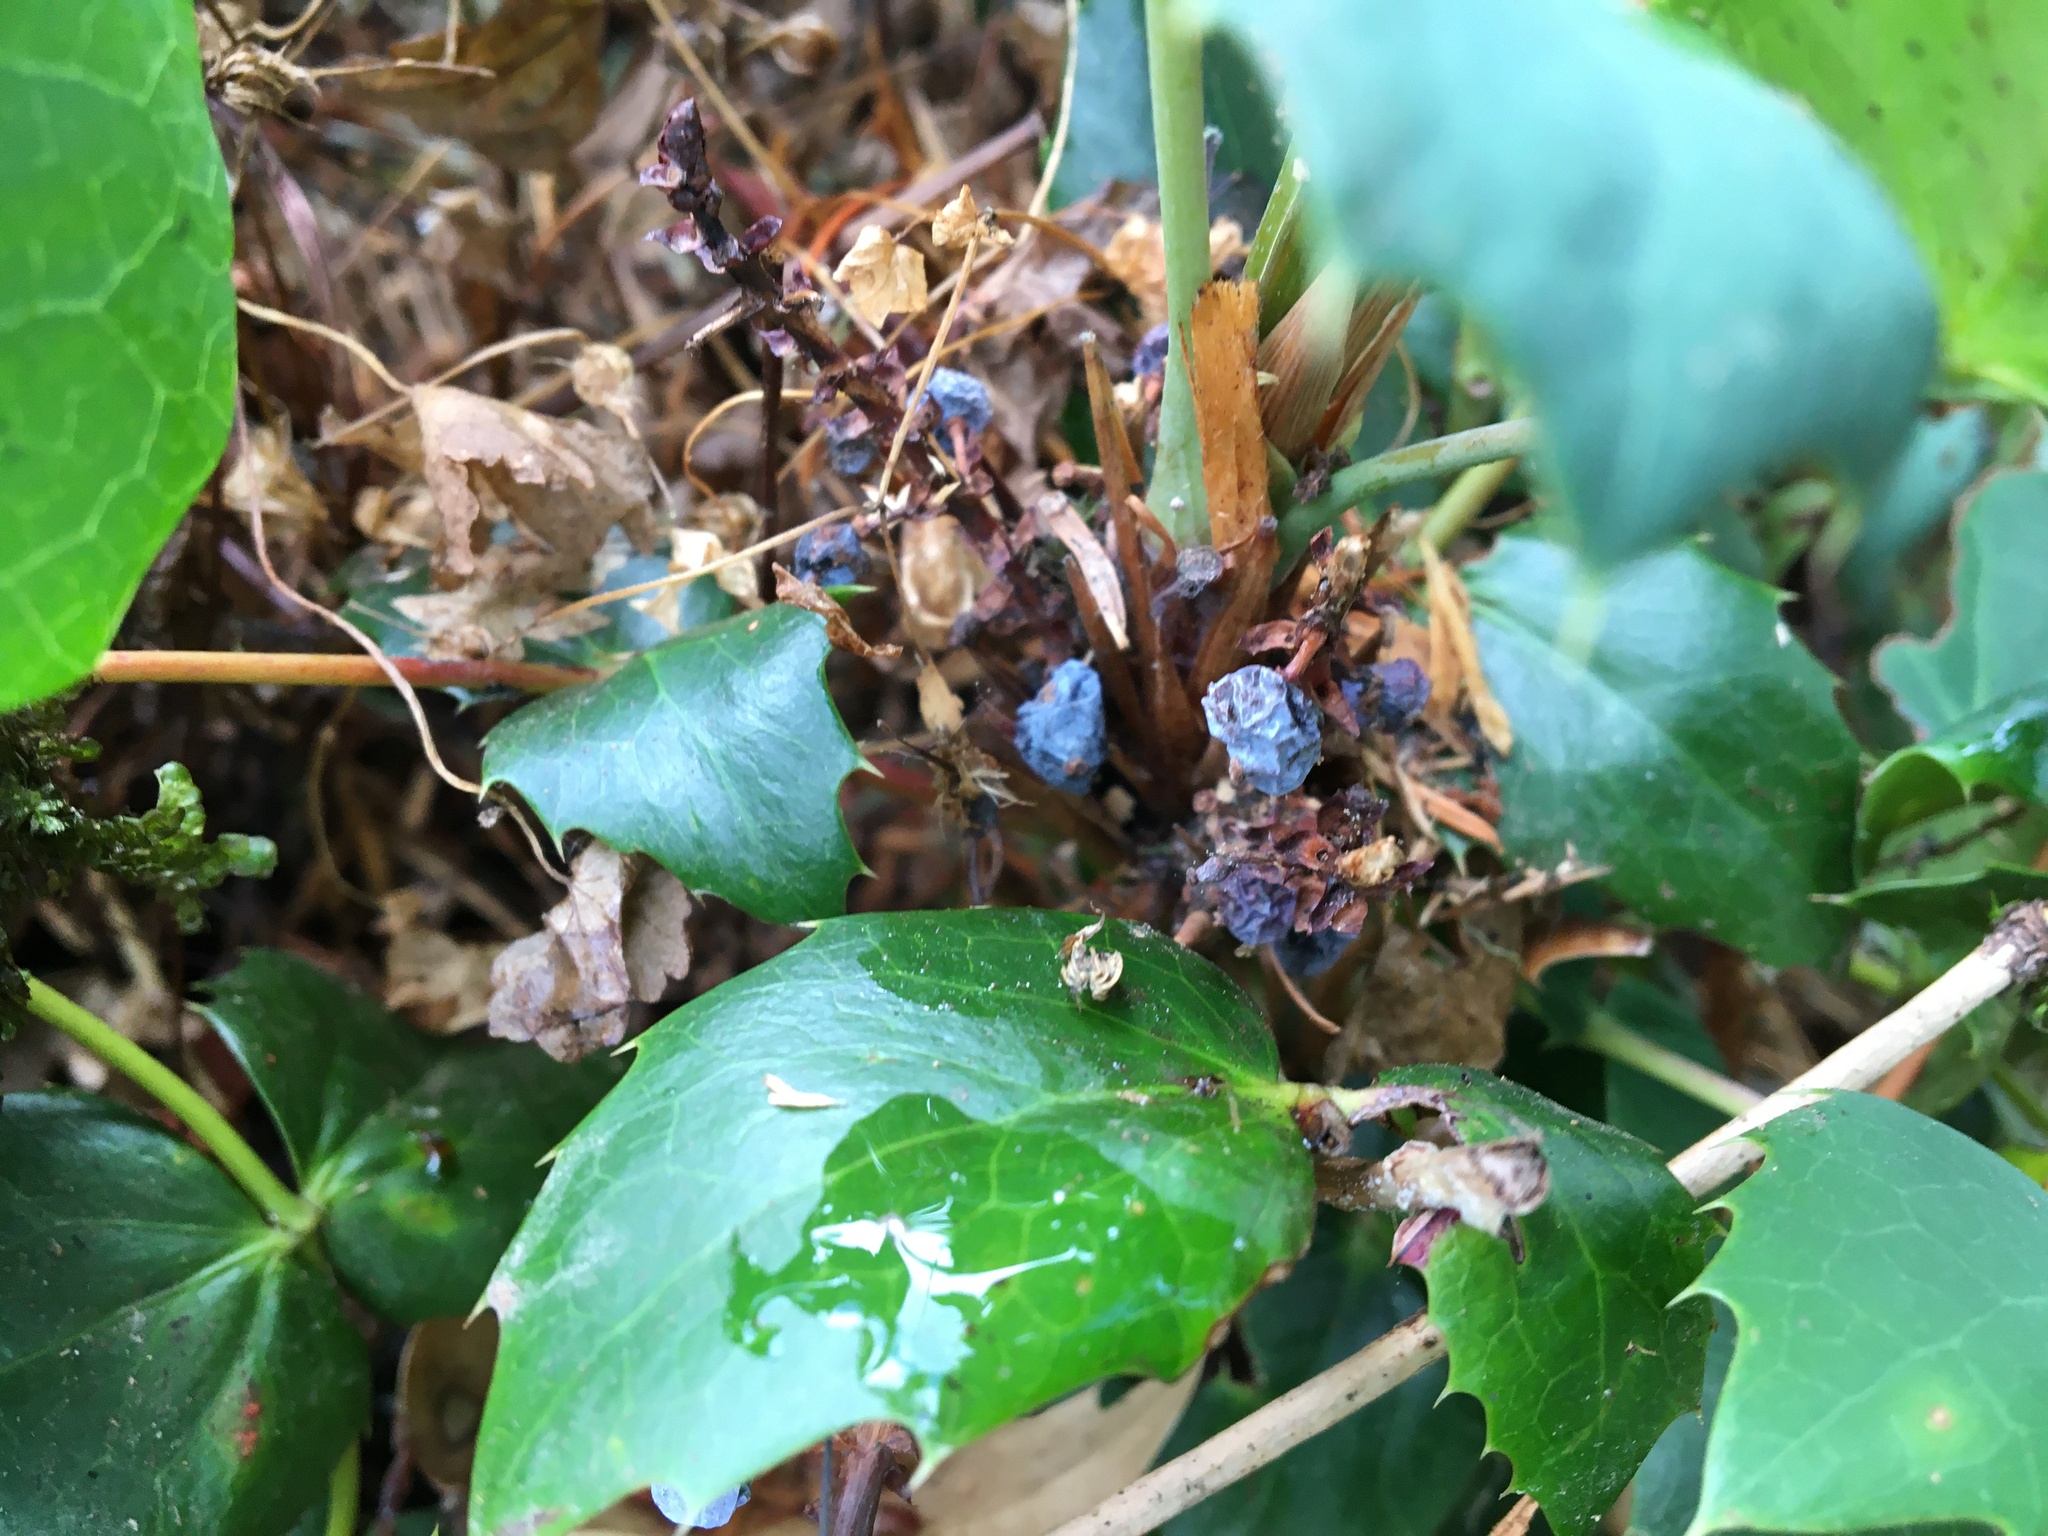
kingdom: Plantae
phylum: Tracheophyta
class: Magnoliopsida
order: Ranunculales
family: Berberidaceae
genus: Mahonia
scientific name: Mahonia nervosa
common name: Cascade oregon-grape
